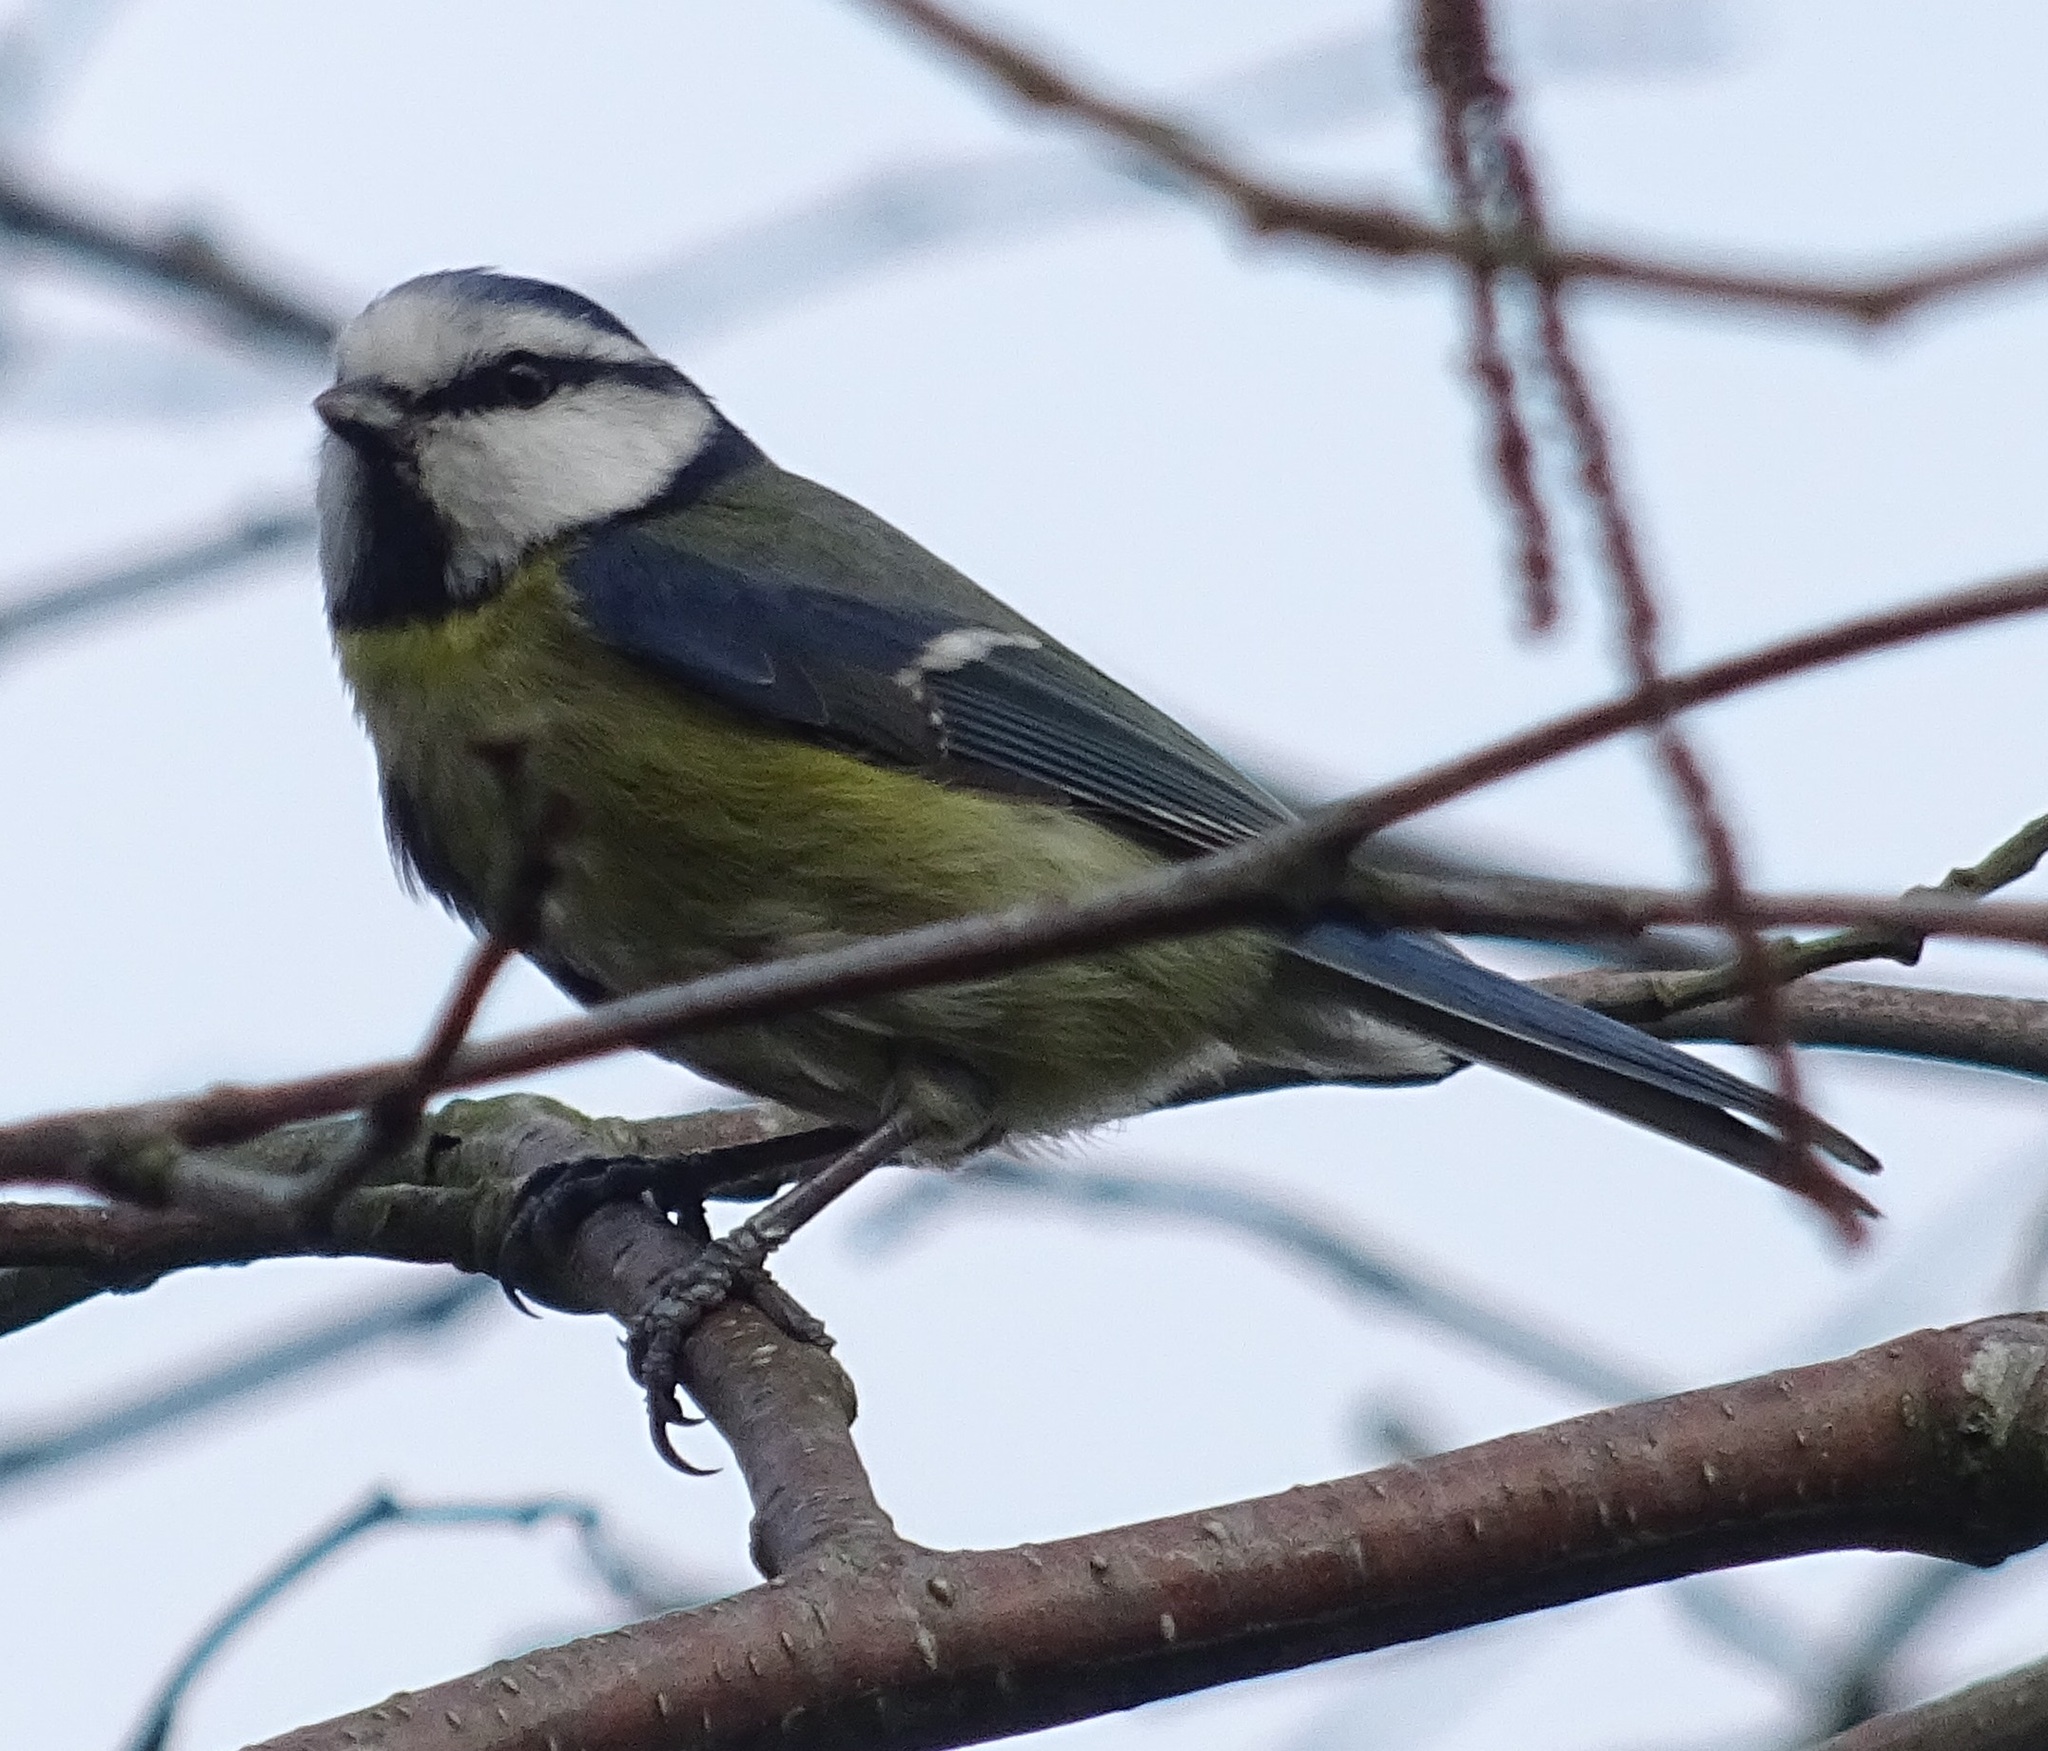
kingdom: Animalia
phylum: Chordata
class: Aves
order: Passeriformes
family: Paridae
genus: Cyanistes
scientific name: Cyanistes caeruleus
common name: Eurasian blue tit
